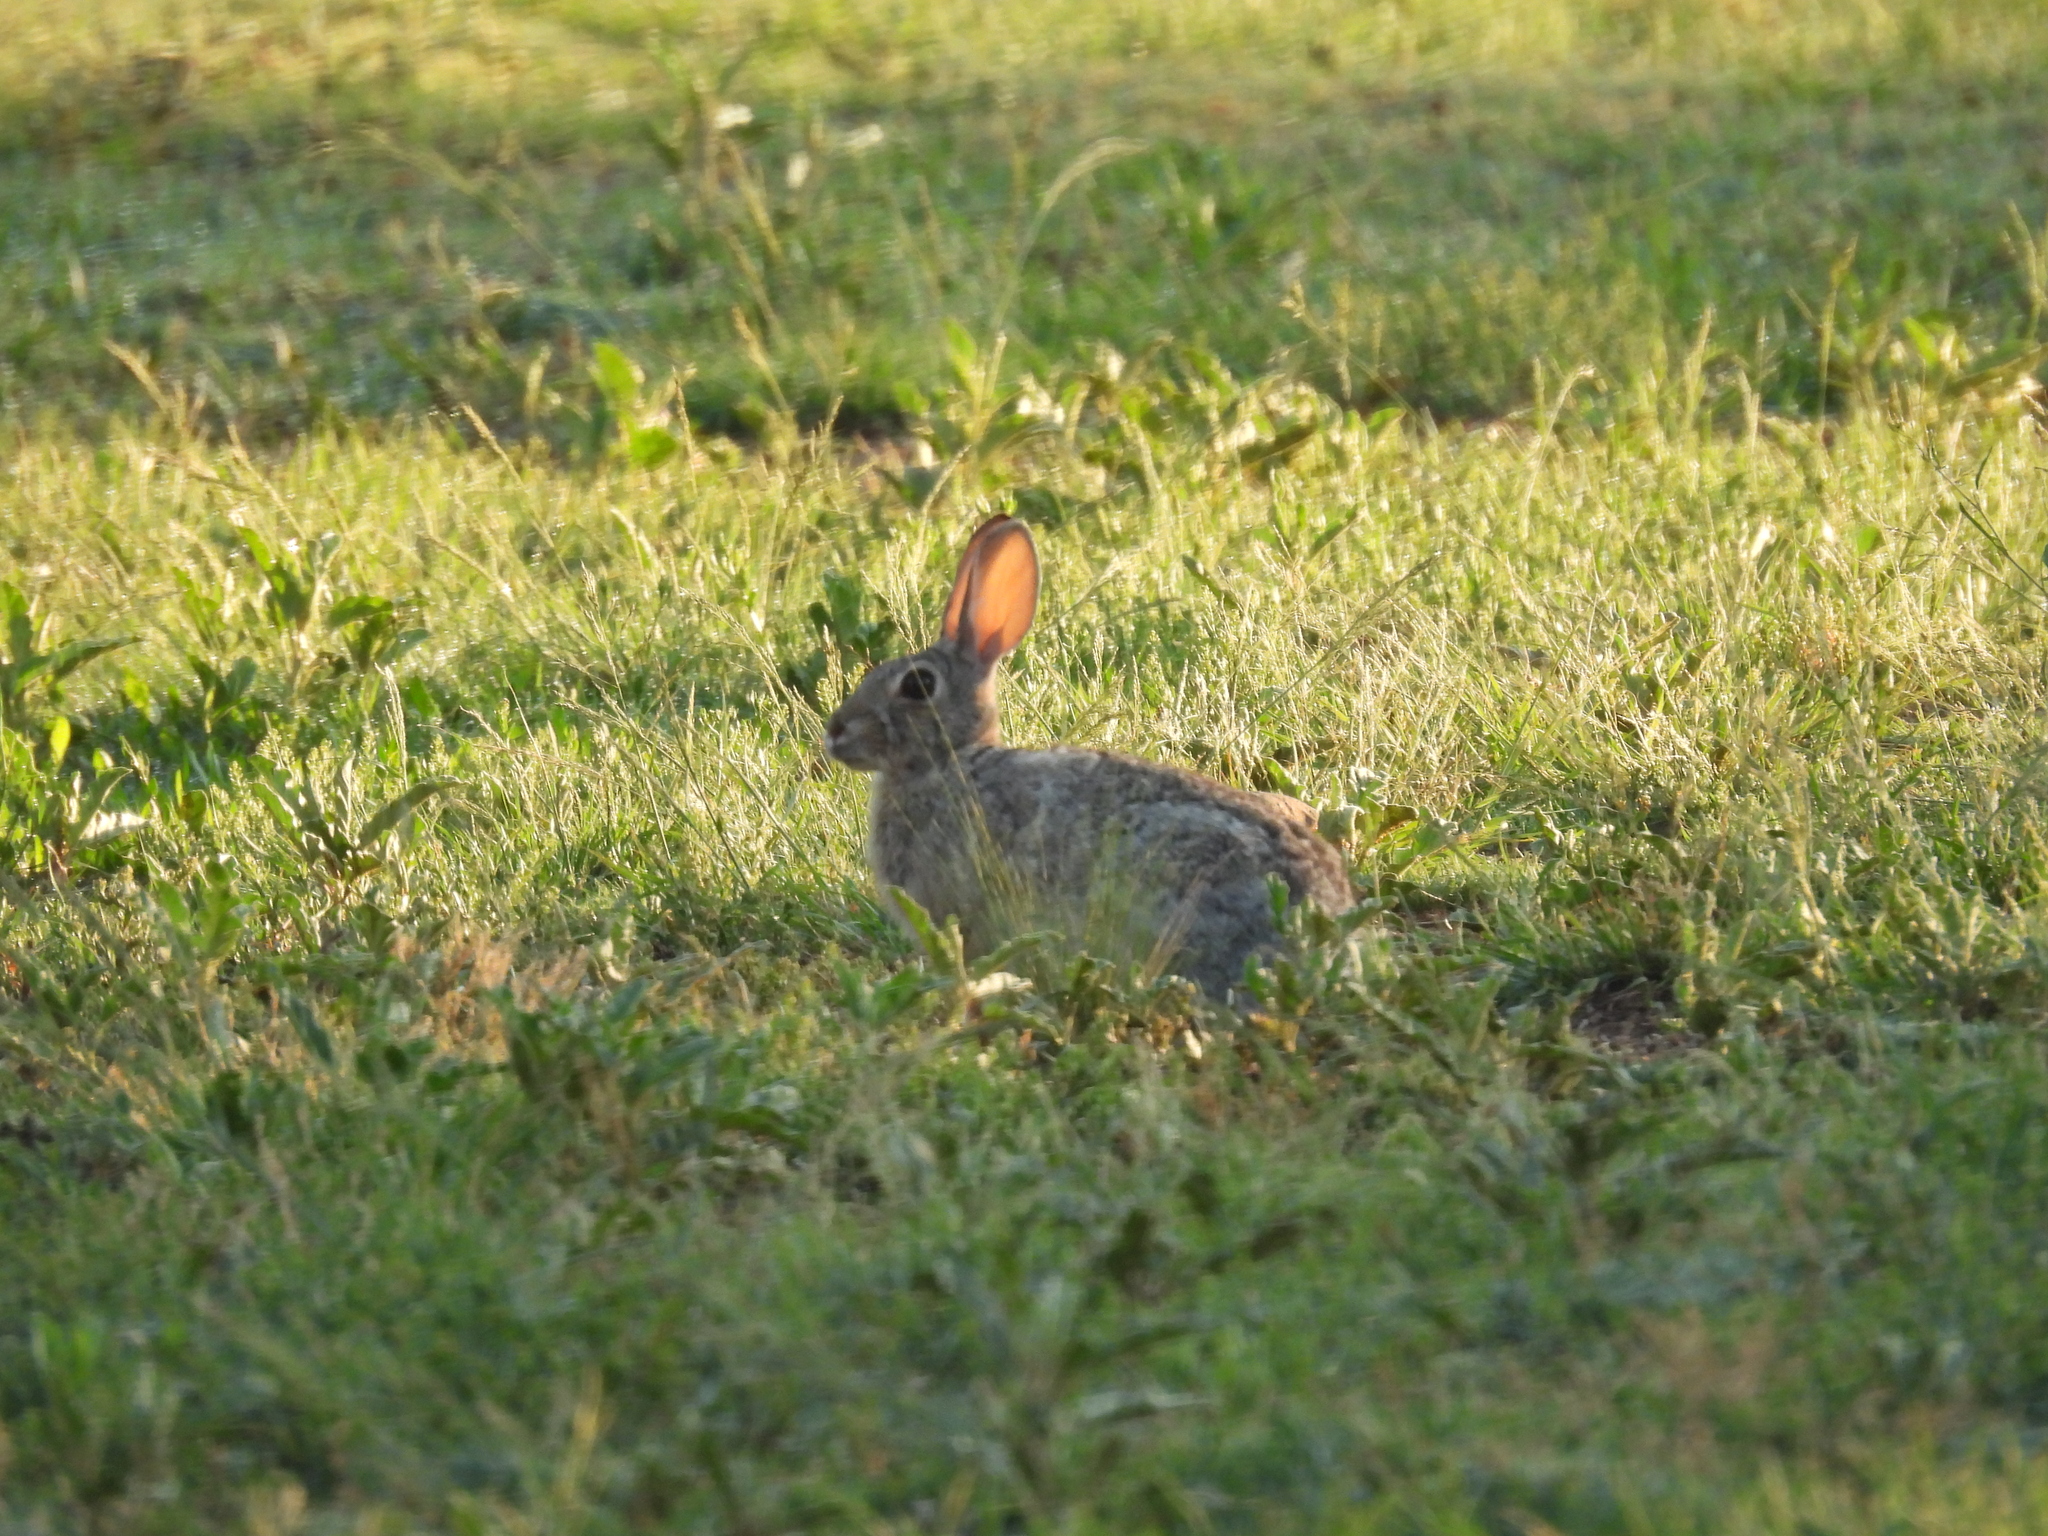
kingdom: Animalia
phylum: Chordata
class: Mammalia
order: Lagomorpha
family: Leporidae
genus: Sylvilagus
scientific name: Sylvilagus audubonii
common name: Desert cottontail
